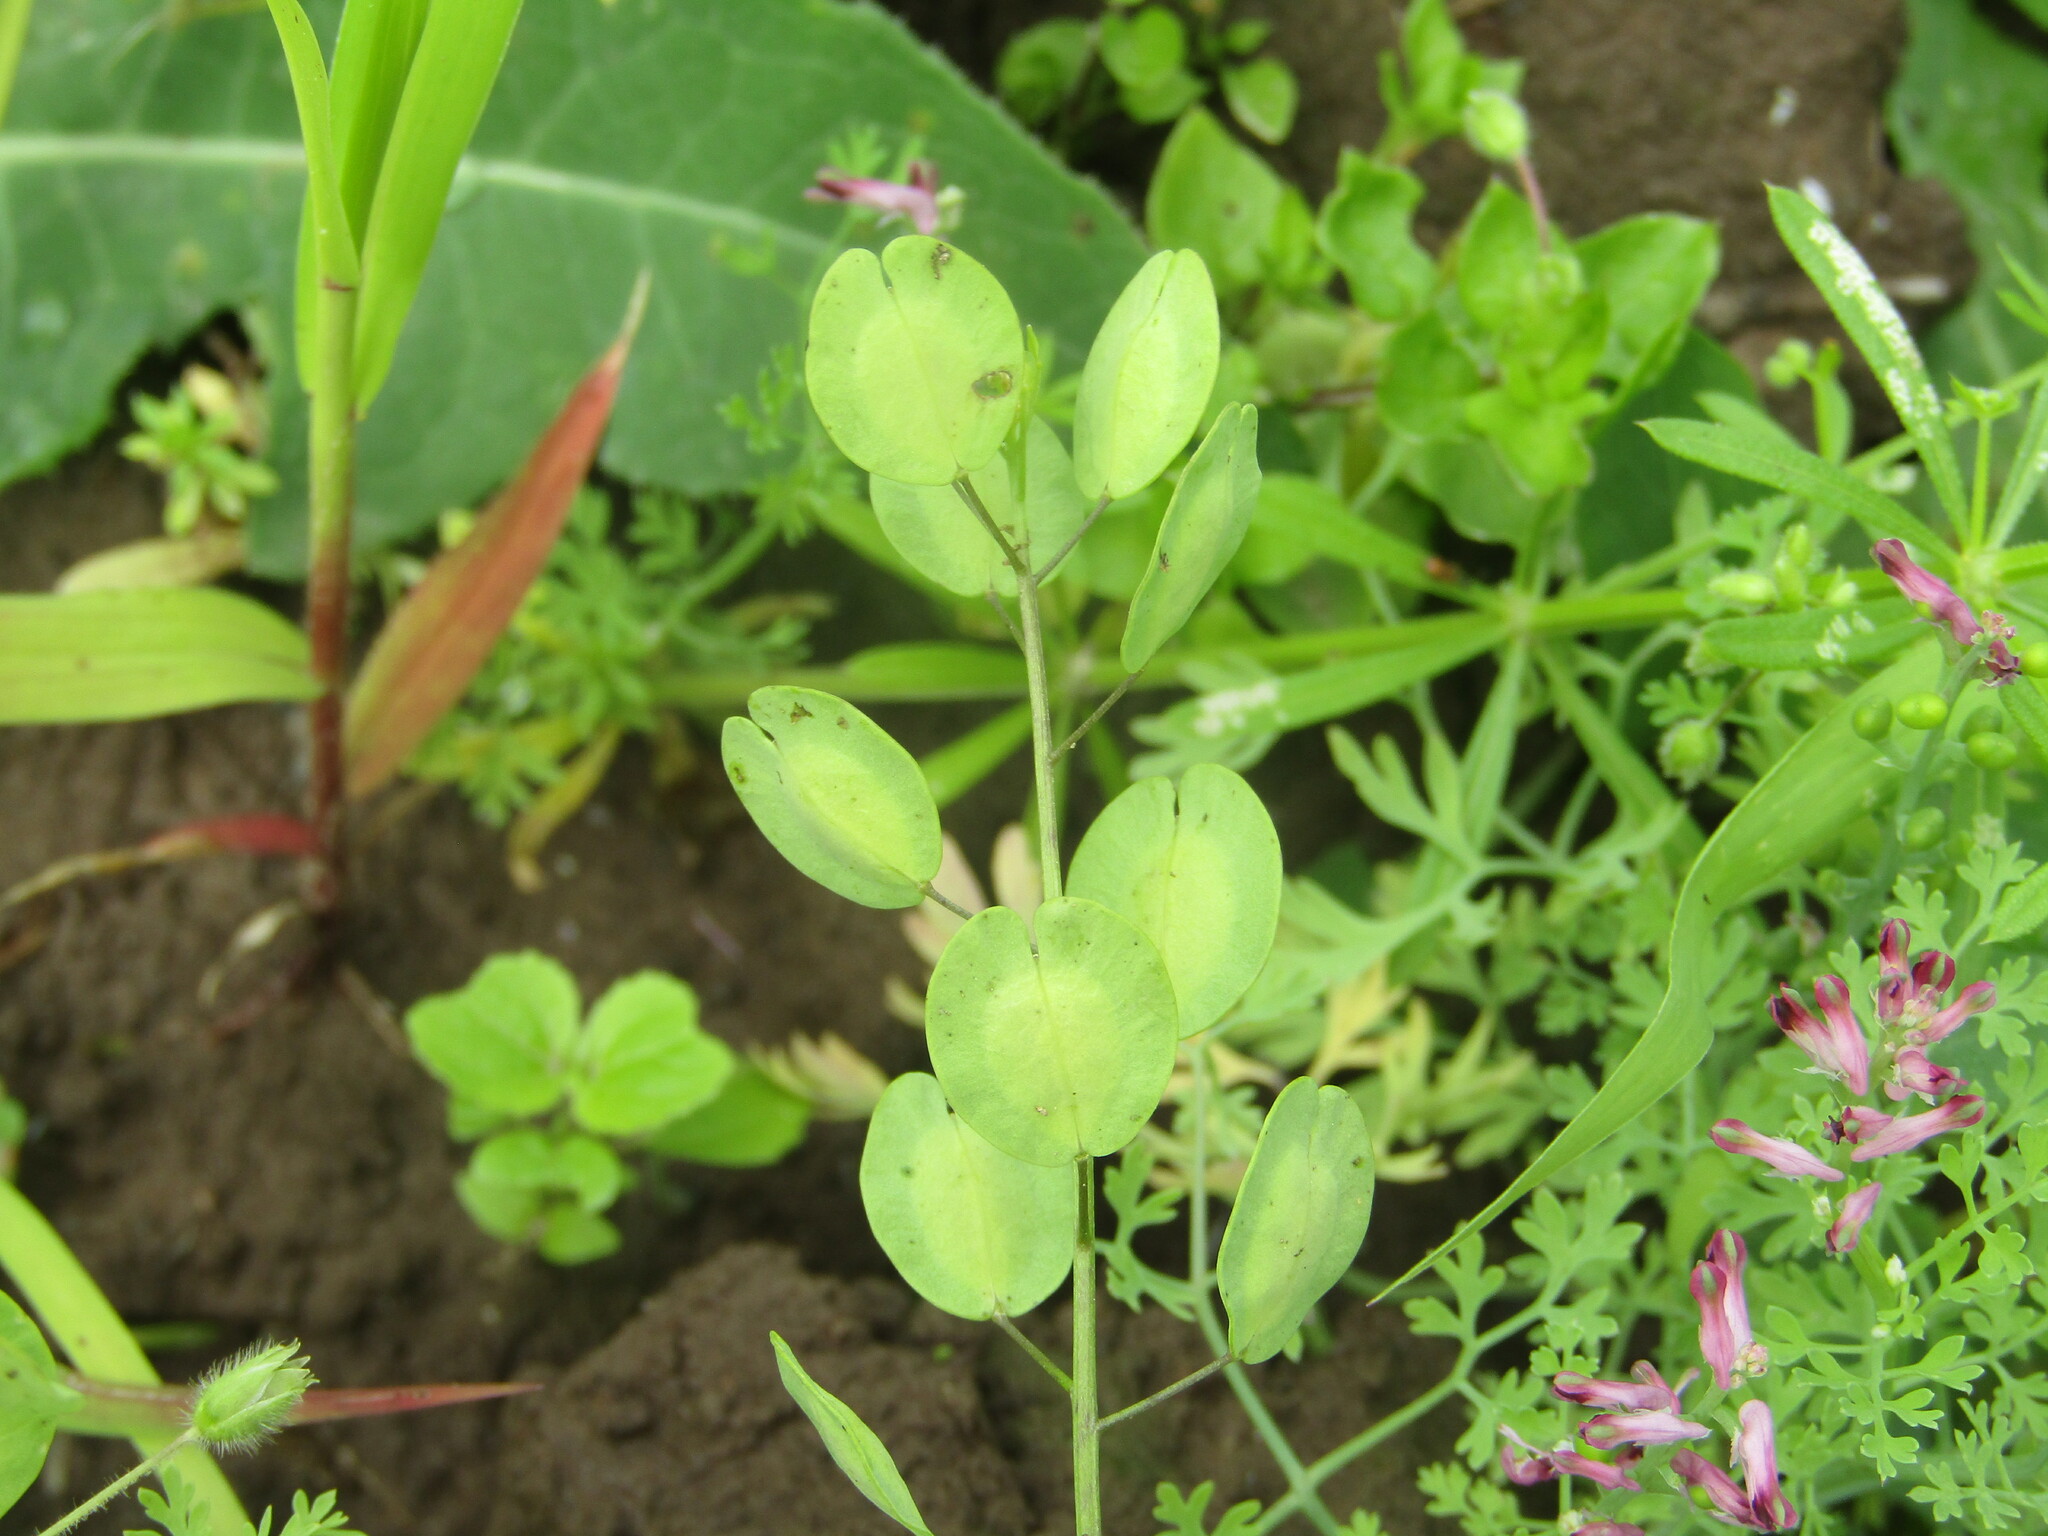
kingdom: Plantae
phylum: Tracheophyta
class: Magnoliopsida
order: Brassicales
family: Brassicaceae
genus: Thlaspi
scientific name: Thlaspi arvense
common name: Field pennycress
